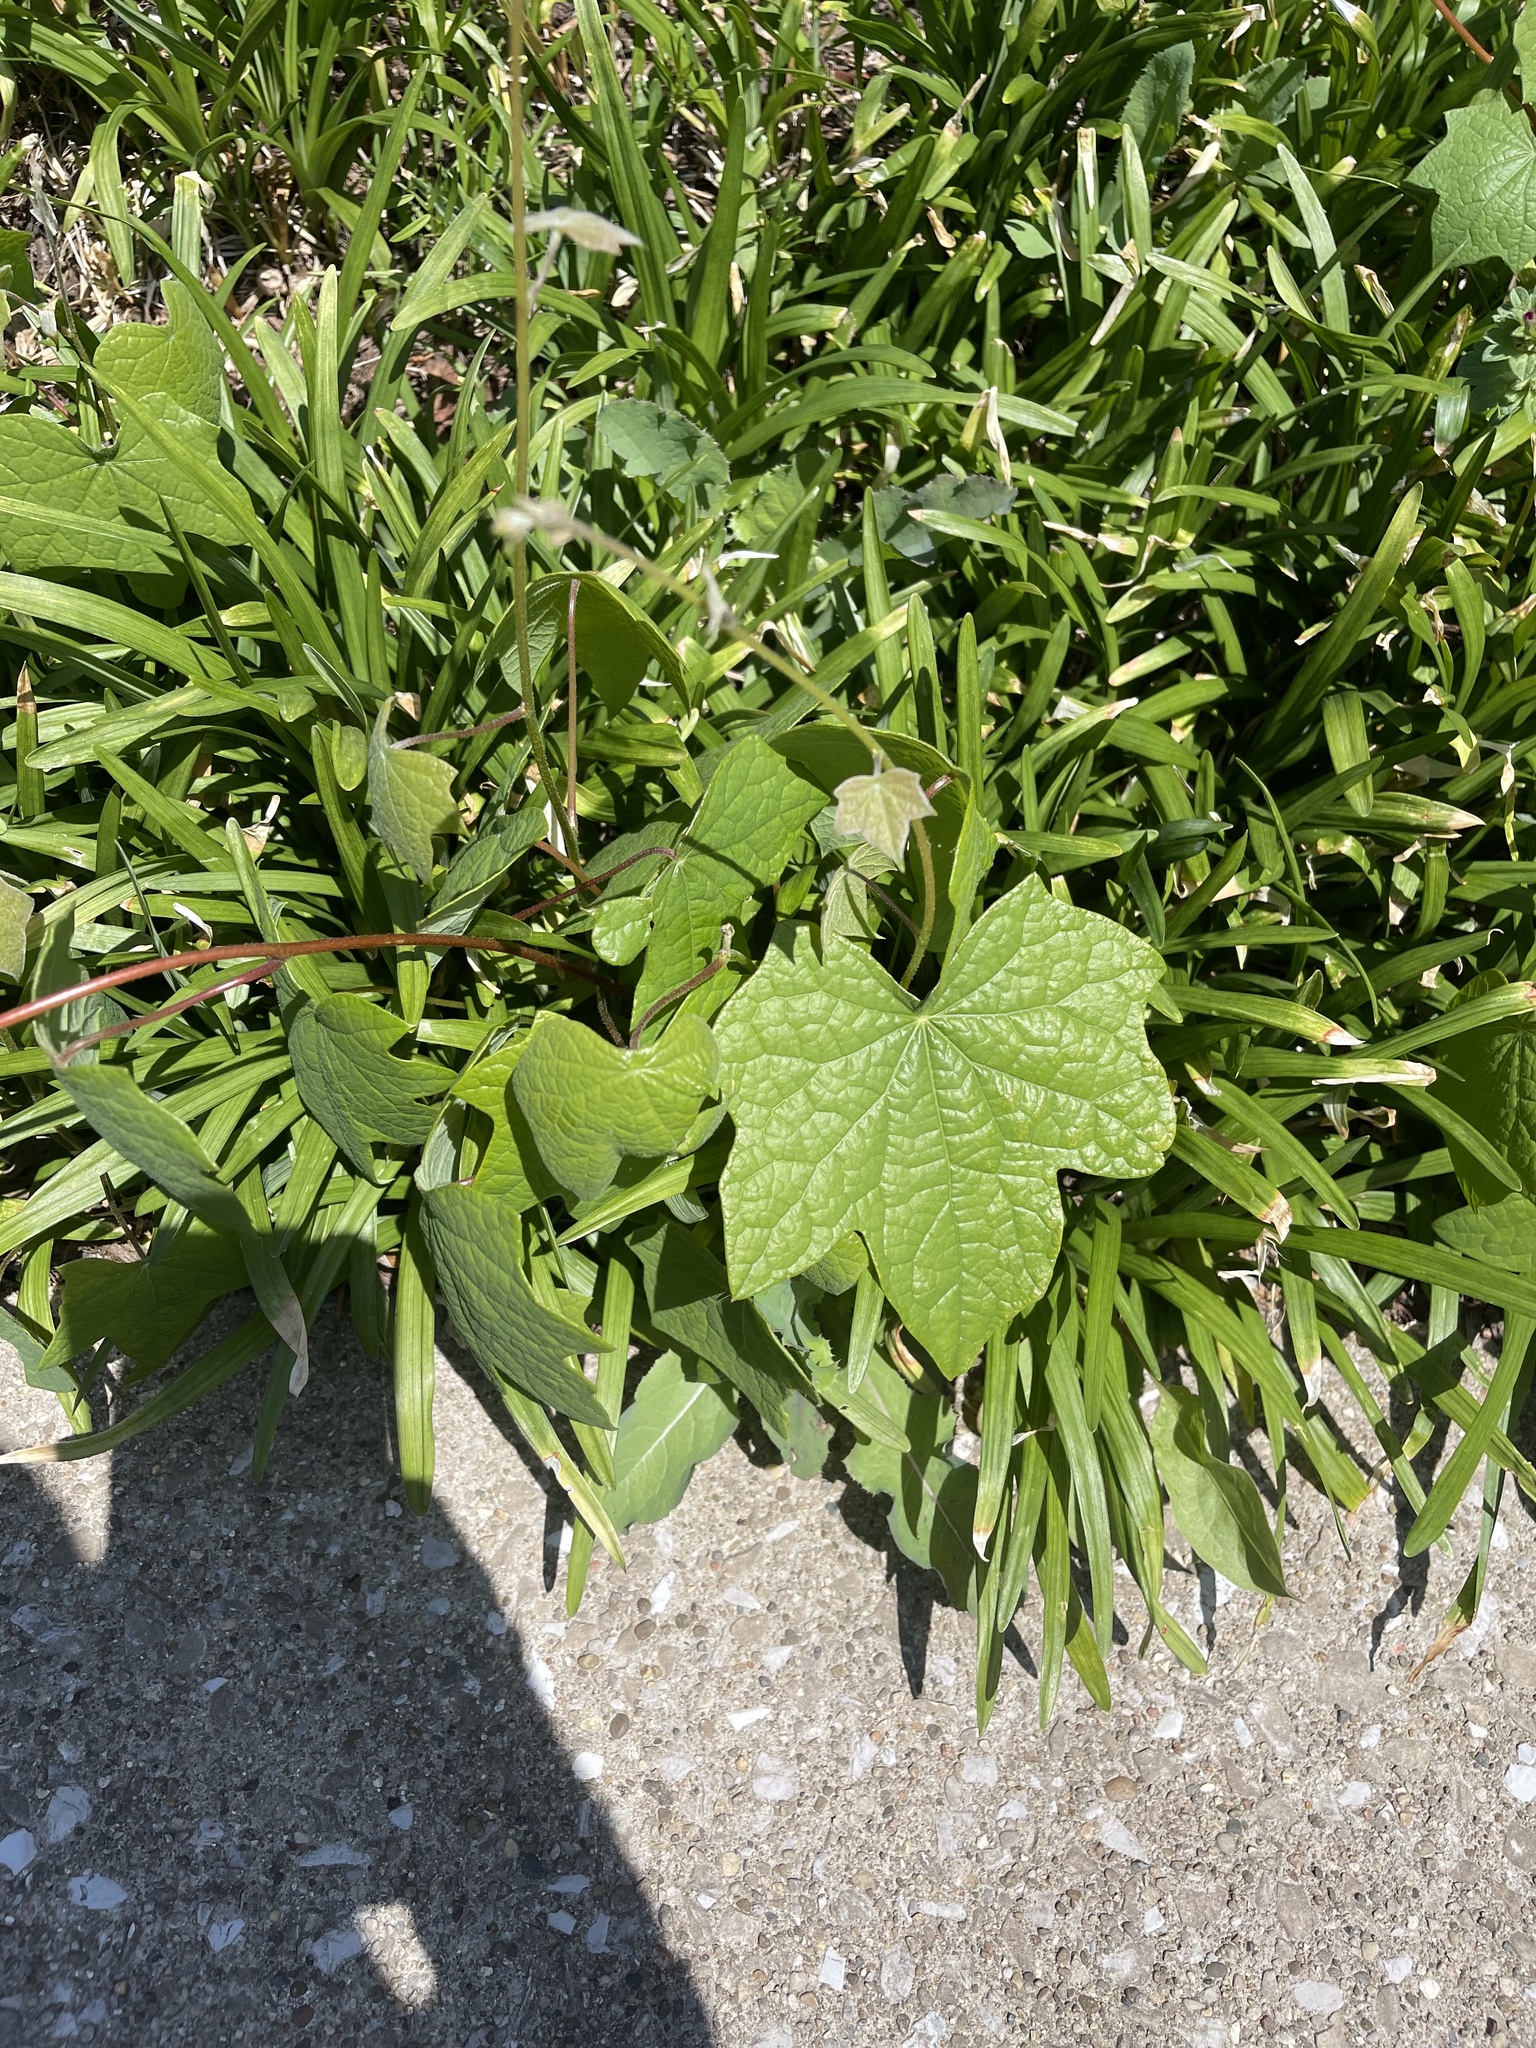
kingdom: Plantae
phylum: Tracheophyta
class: Magnoliopsida
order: Ranunculales
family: Menispermaceae
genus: Menispermum
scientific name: Menispermum canadense
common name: Moonseed
